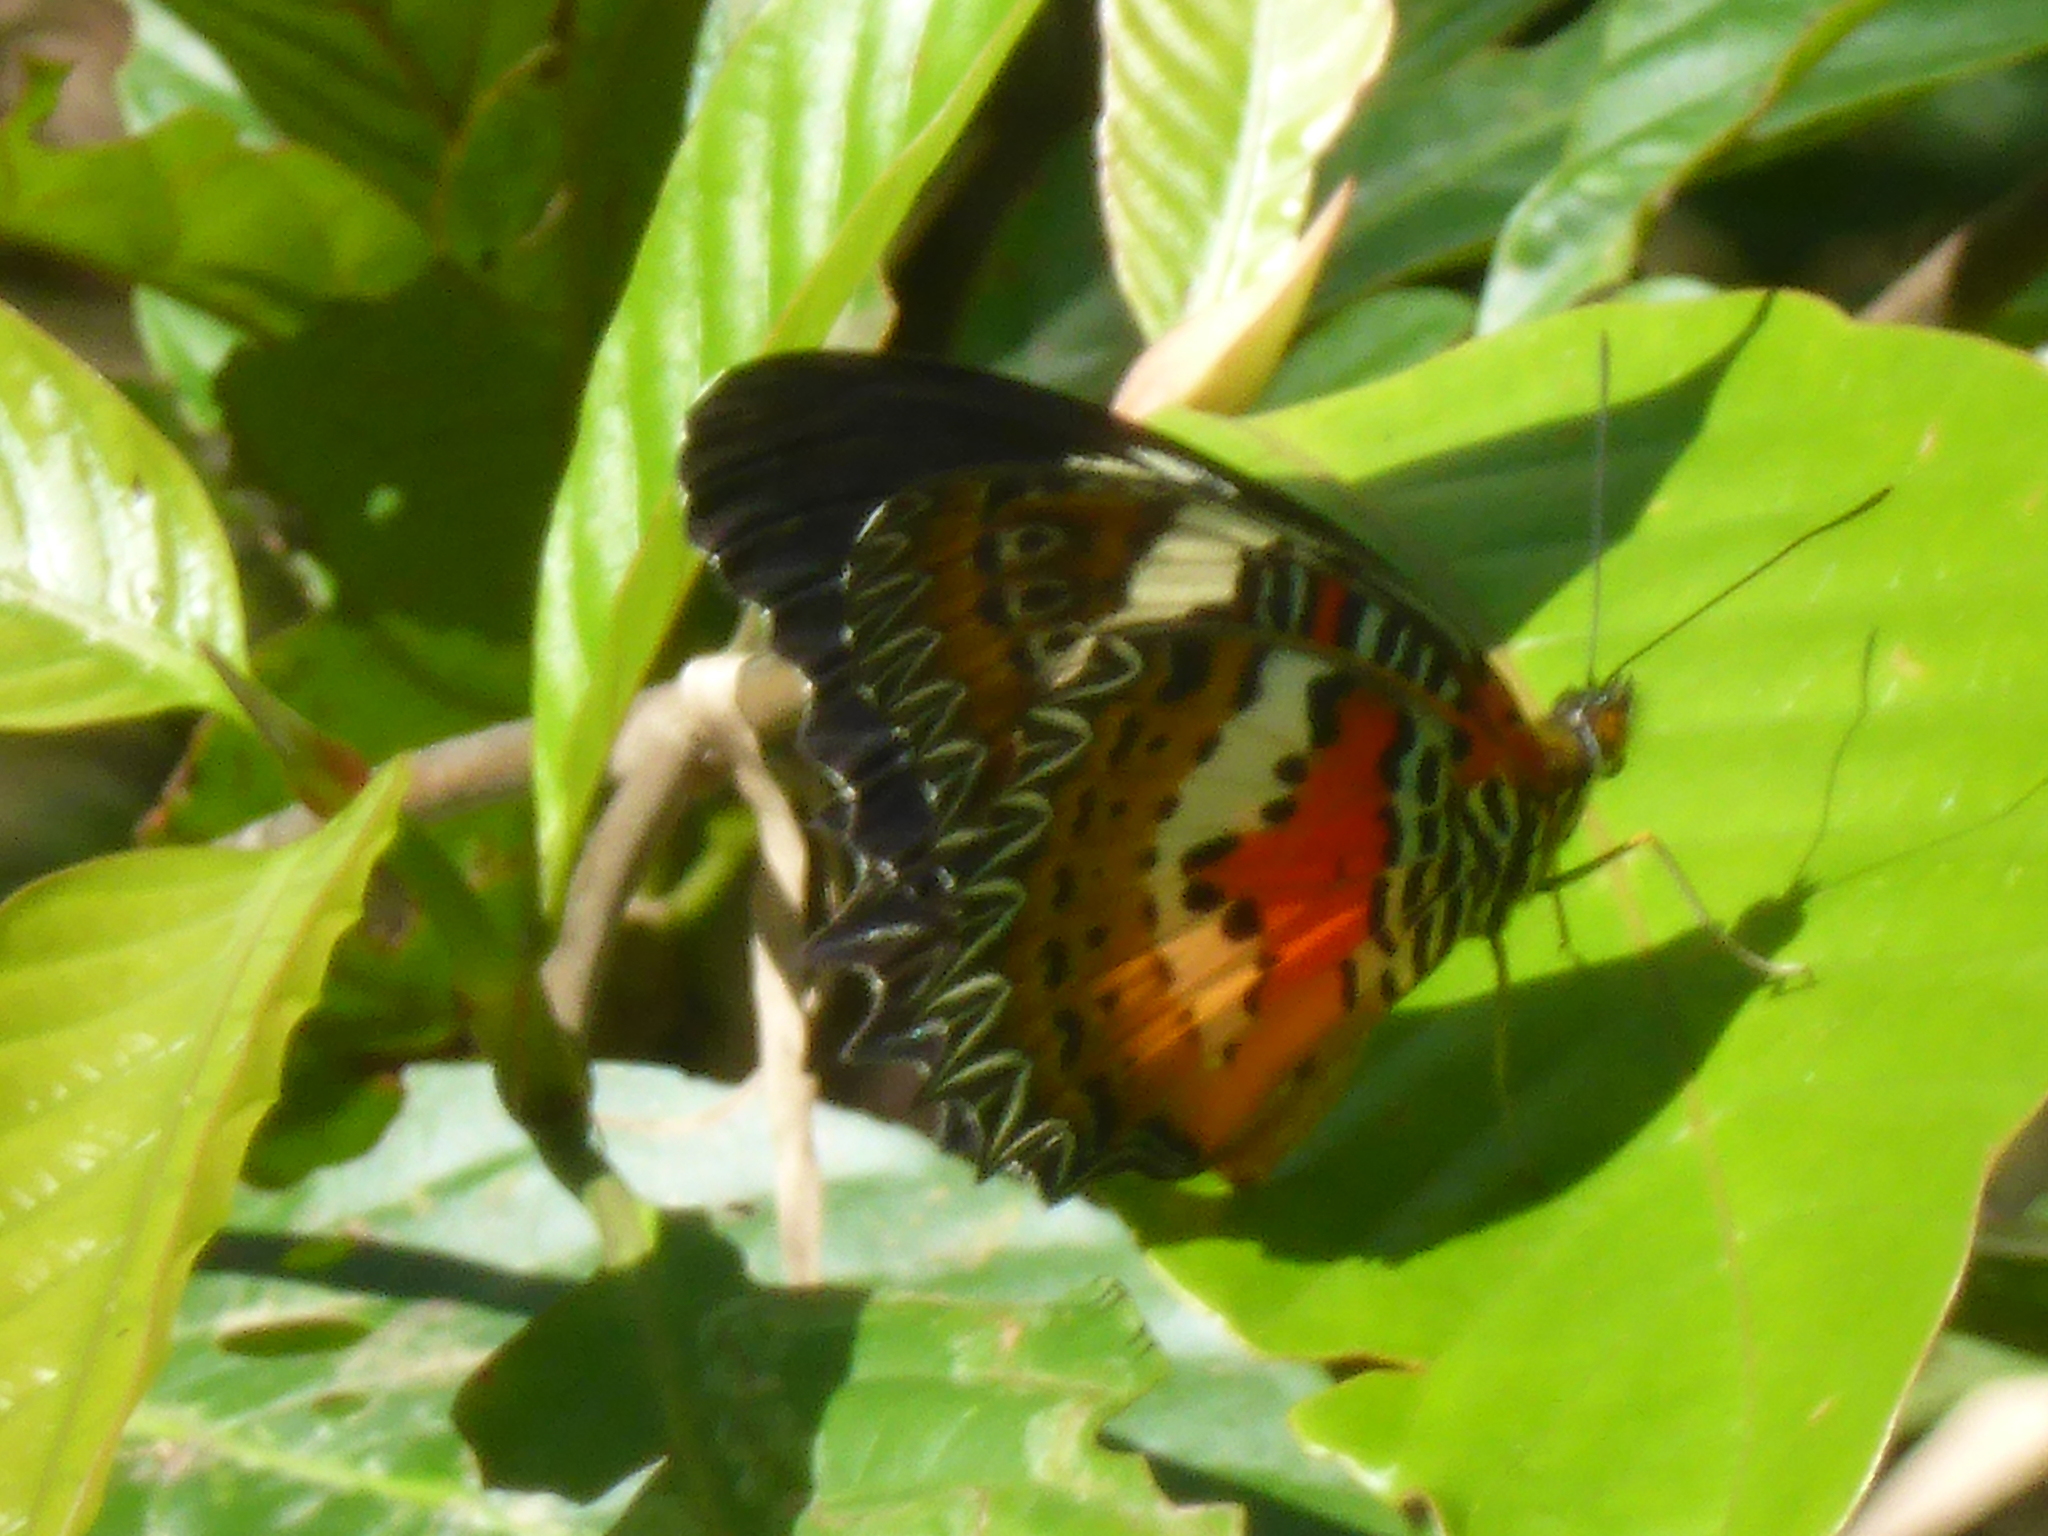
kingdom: Animalia
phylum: Arthropoda
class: Insecta
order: Lepidoptera
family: Nymphalidae
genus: Cethosia
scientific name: Cethosia hypsea
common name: Malayan lacewing butterfly
